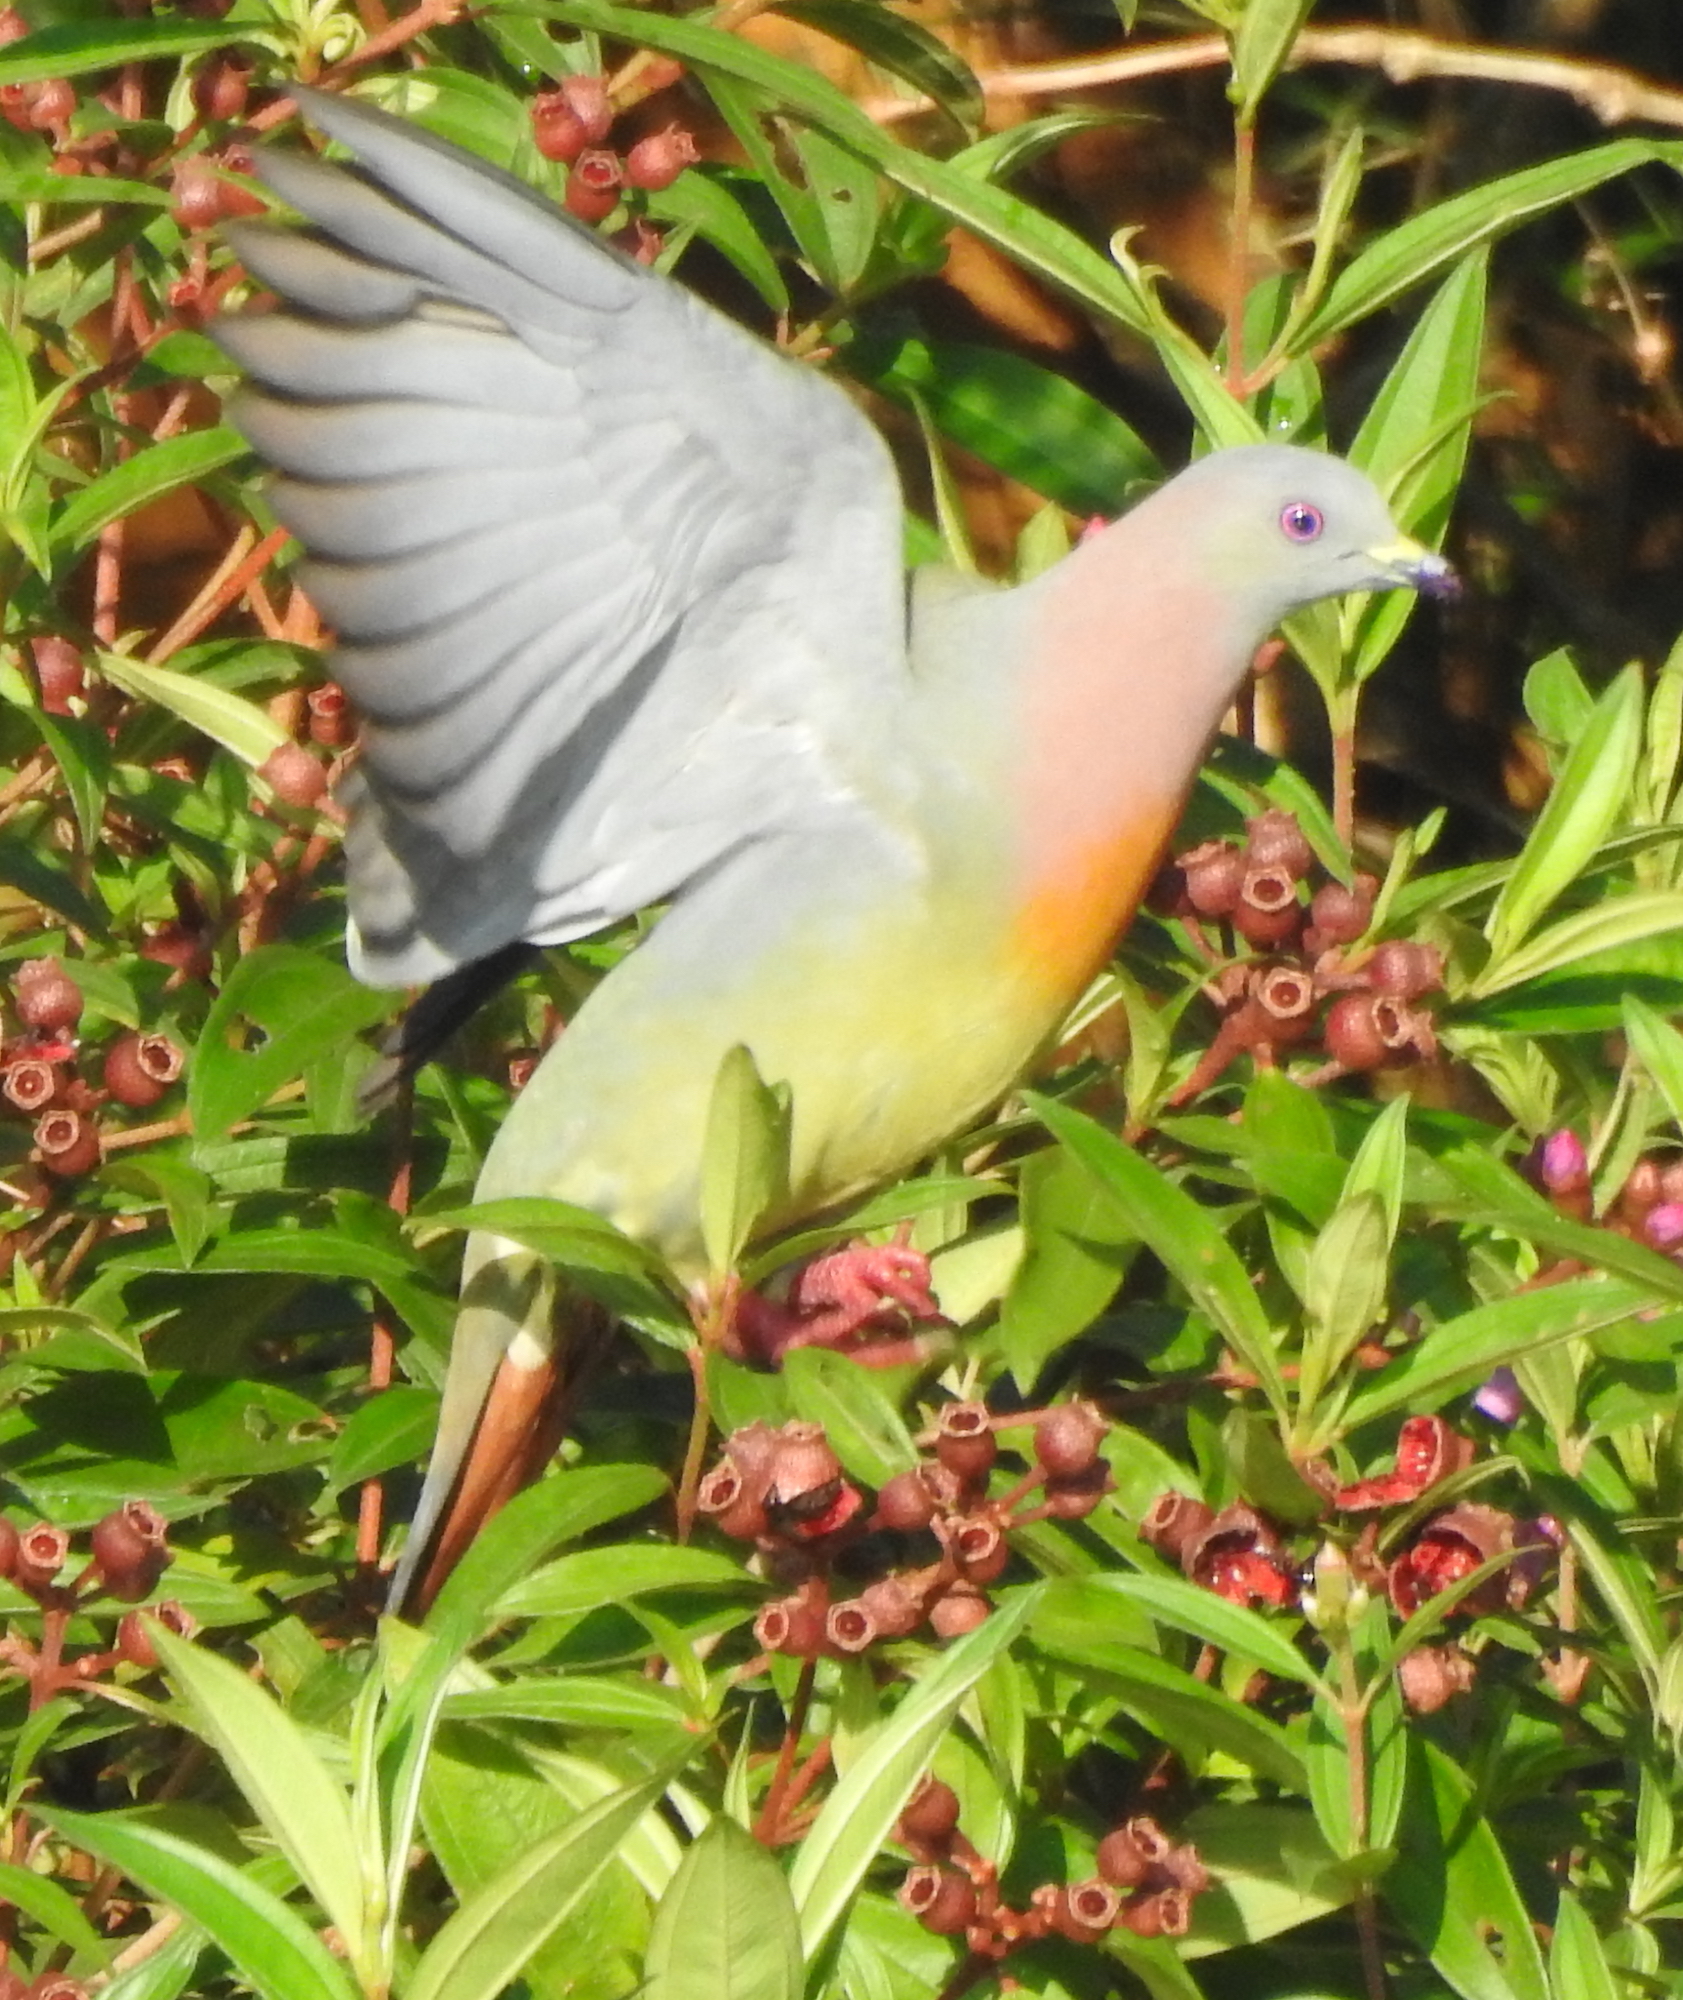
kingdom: Animalia
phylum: Chordata
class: Aves
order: Columbiformes
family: Columbidae
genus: Treron
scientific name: Treron vernans
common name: Pink-necked green pigeon
